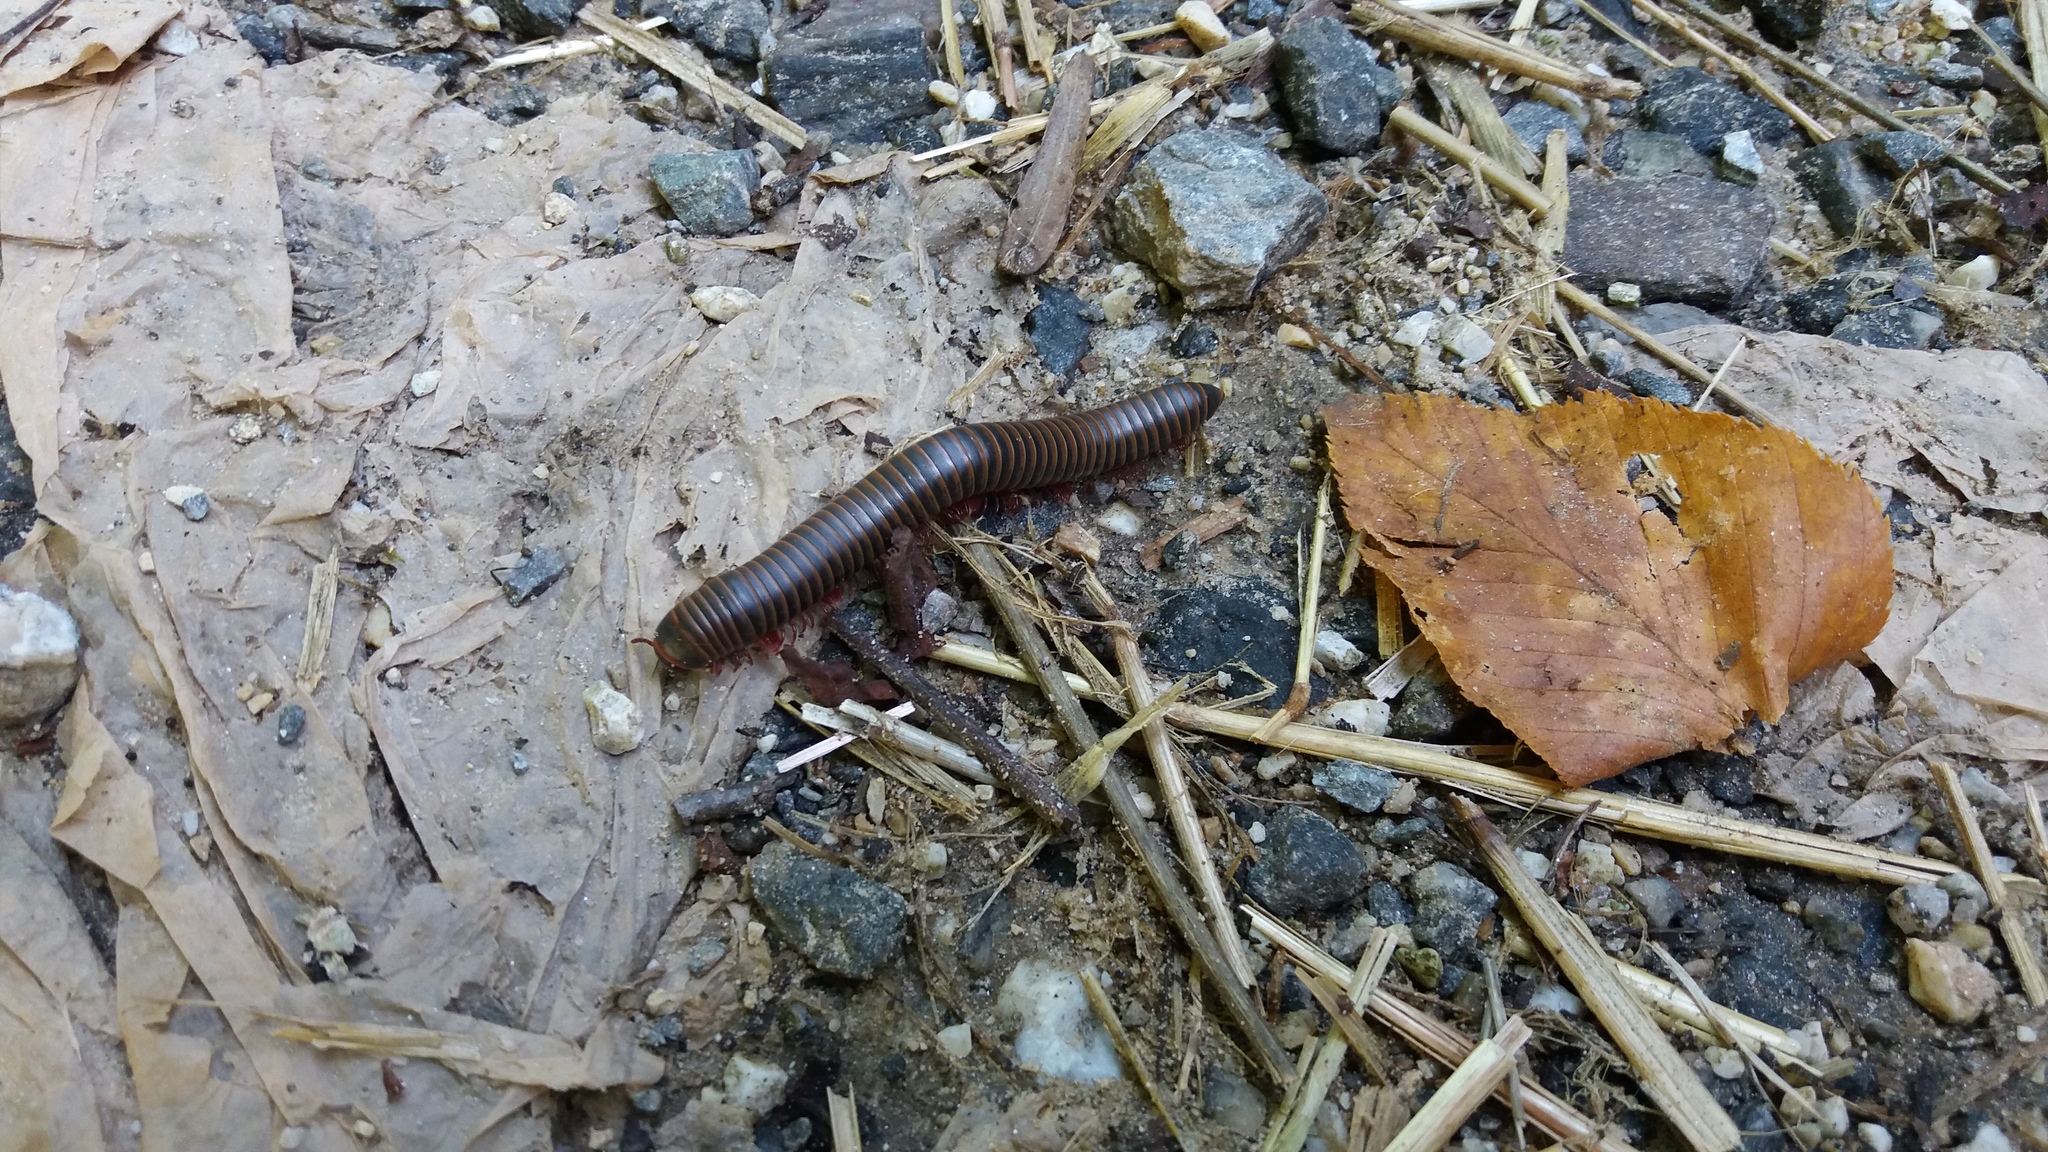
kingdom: Animalia
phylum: Arthropoda
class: Diplopoda
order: Spirobolida
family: Spirobolidae
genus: Narceus
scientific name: Narceus
